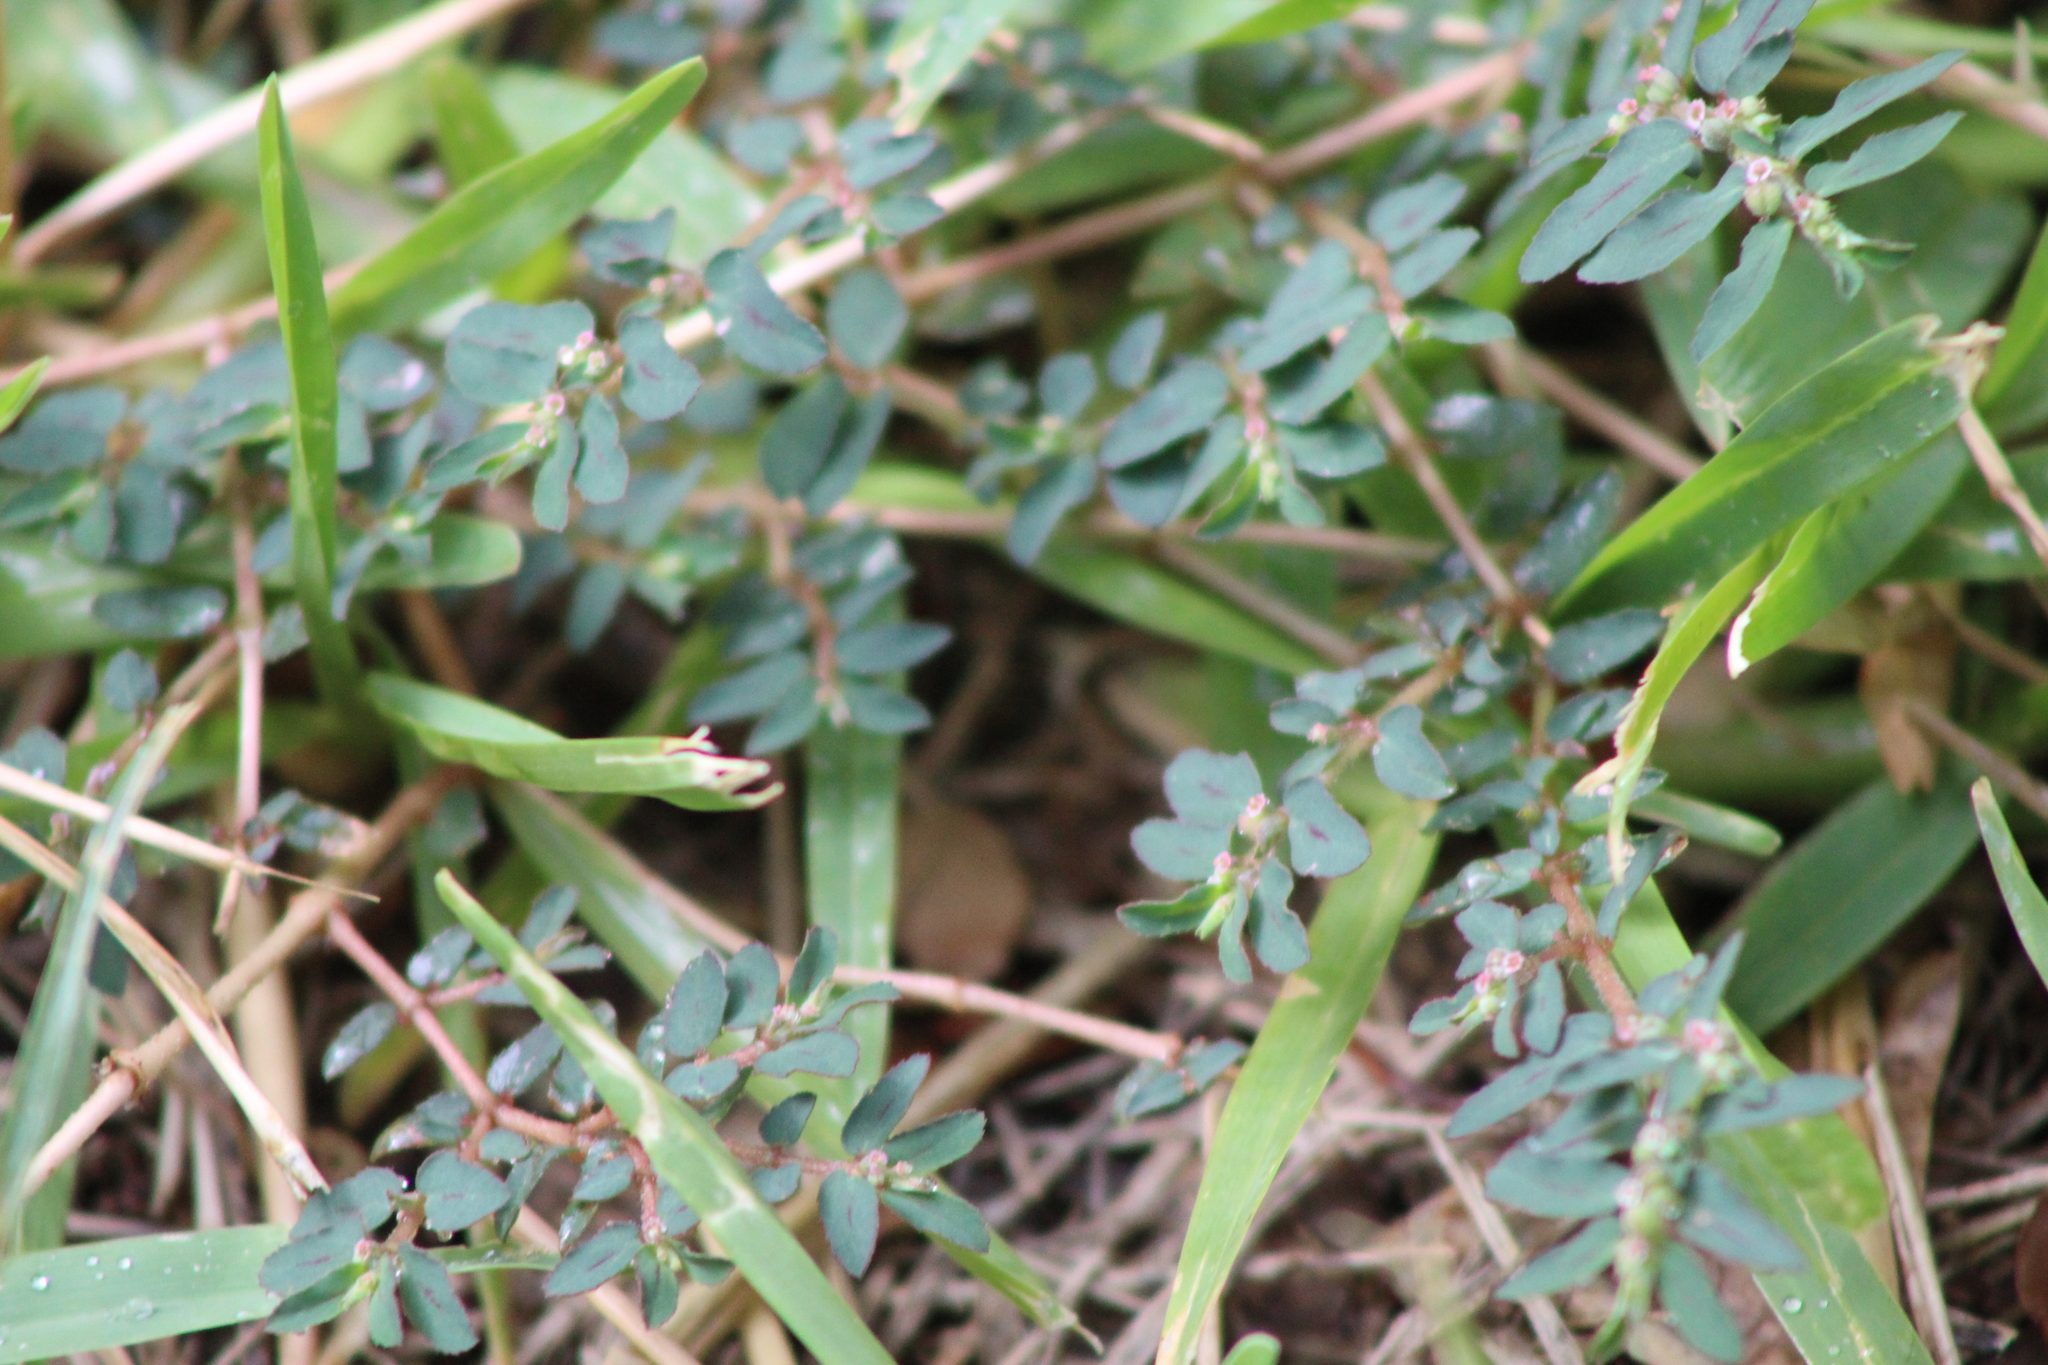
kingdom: Plantae
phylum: Tracheophyta
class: Magnoliopsida
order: Malpighiales
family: Euphorbiaceae
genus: Euphorbia
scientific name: Euphorbia maculata
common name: Spotted spurge
